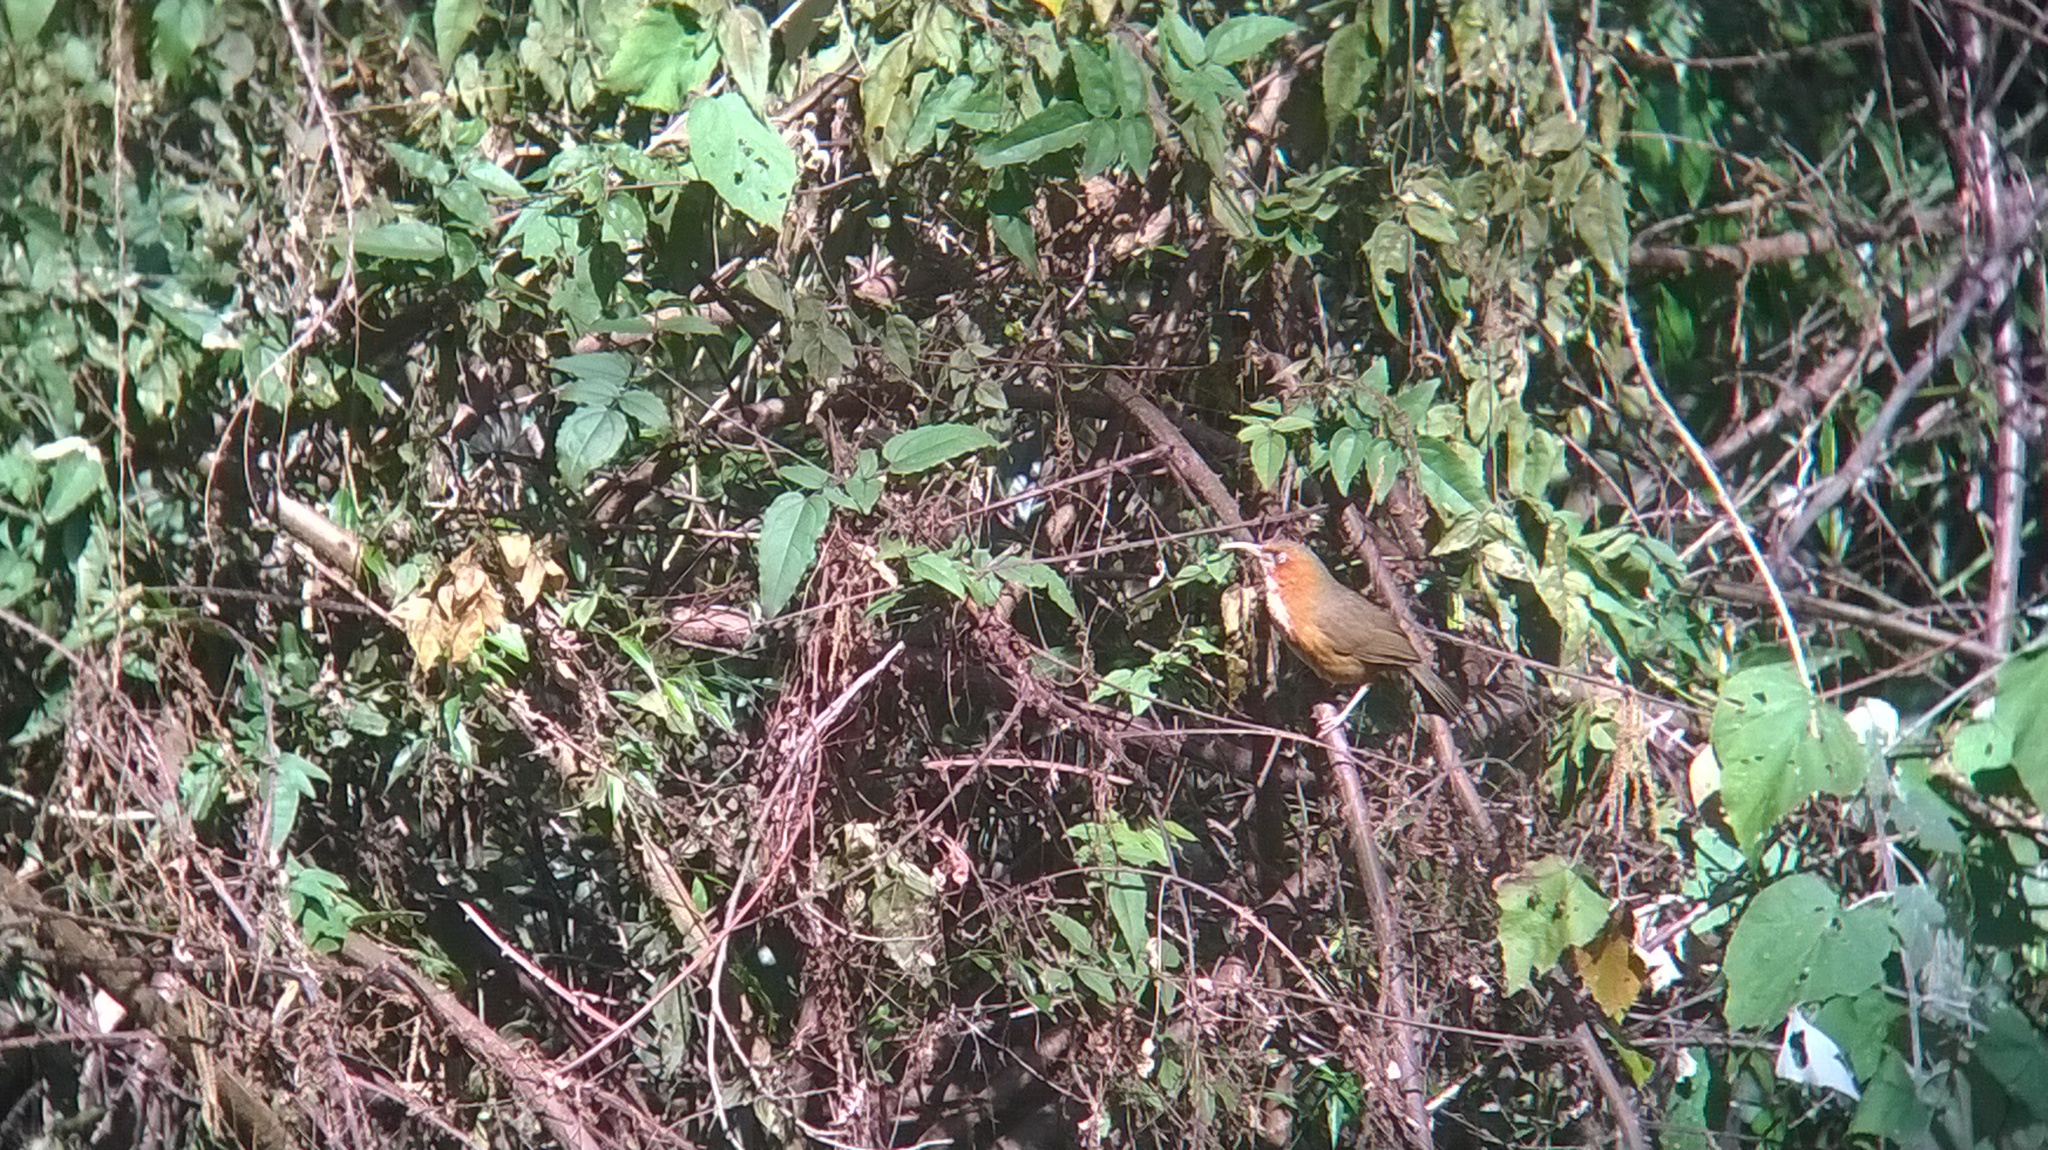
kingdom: Animalia
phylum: Chordata
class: Aves
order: Passeriformes
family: Timaliidae
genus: Pomatorhinus
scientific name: Pomatorhinus erythrogenys
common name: Rusty-cheeked scimitar babbler
